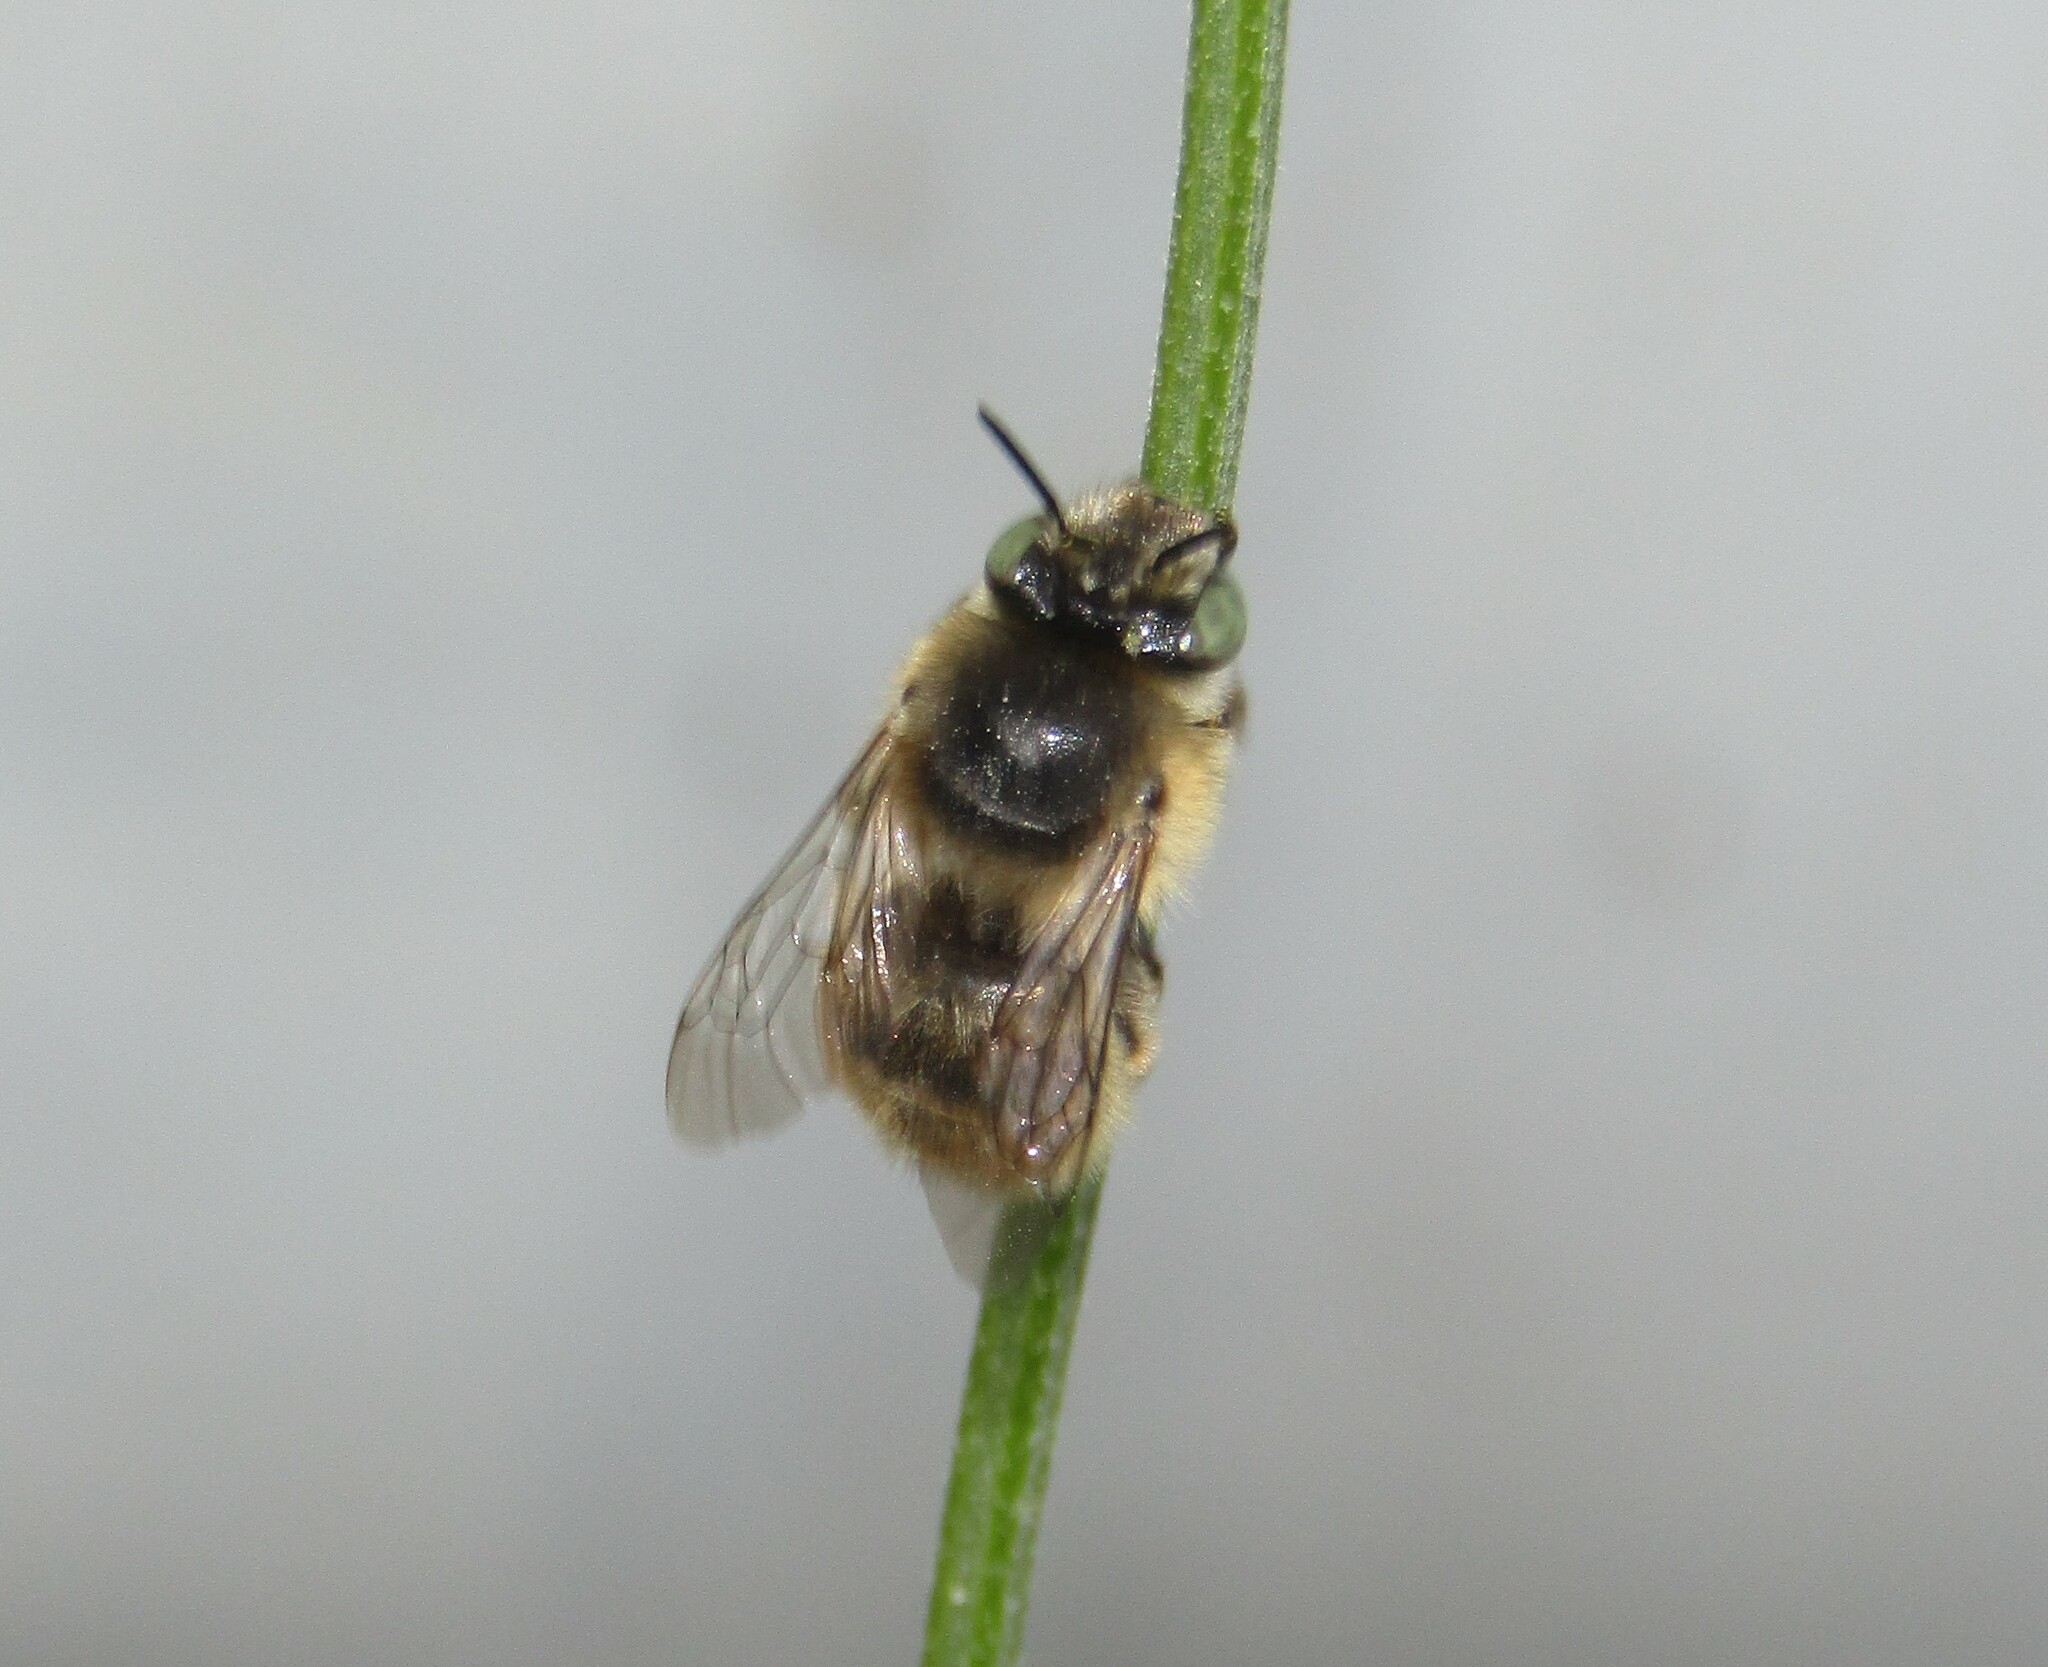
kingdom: Animalia
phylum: Arthropoda
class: Insecta
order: Hymenoptera
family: Apidae
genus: Anthophora
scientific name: Anthophora quadrimaculata
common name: Four-banded flower bee
